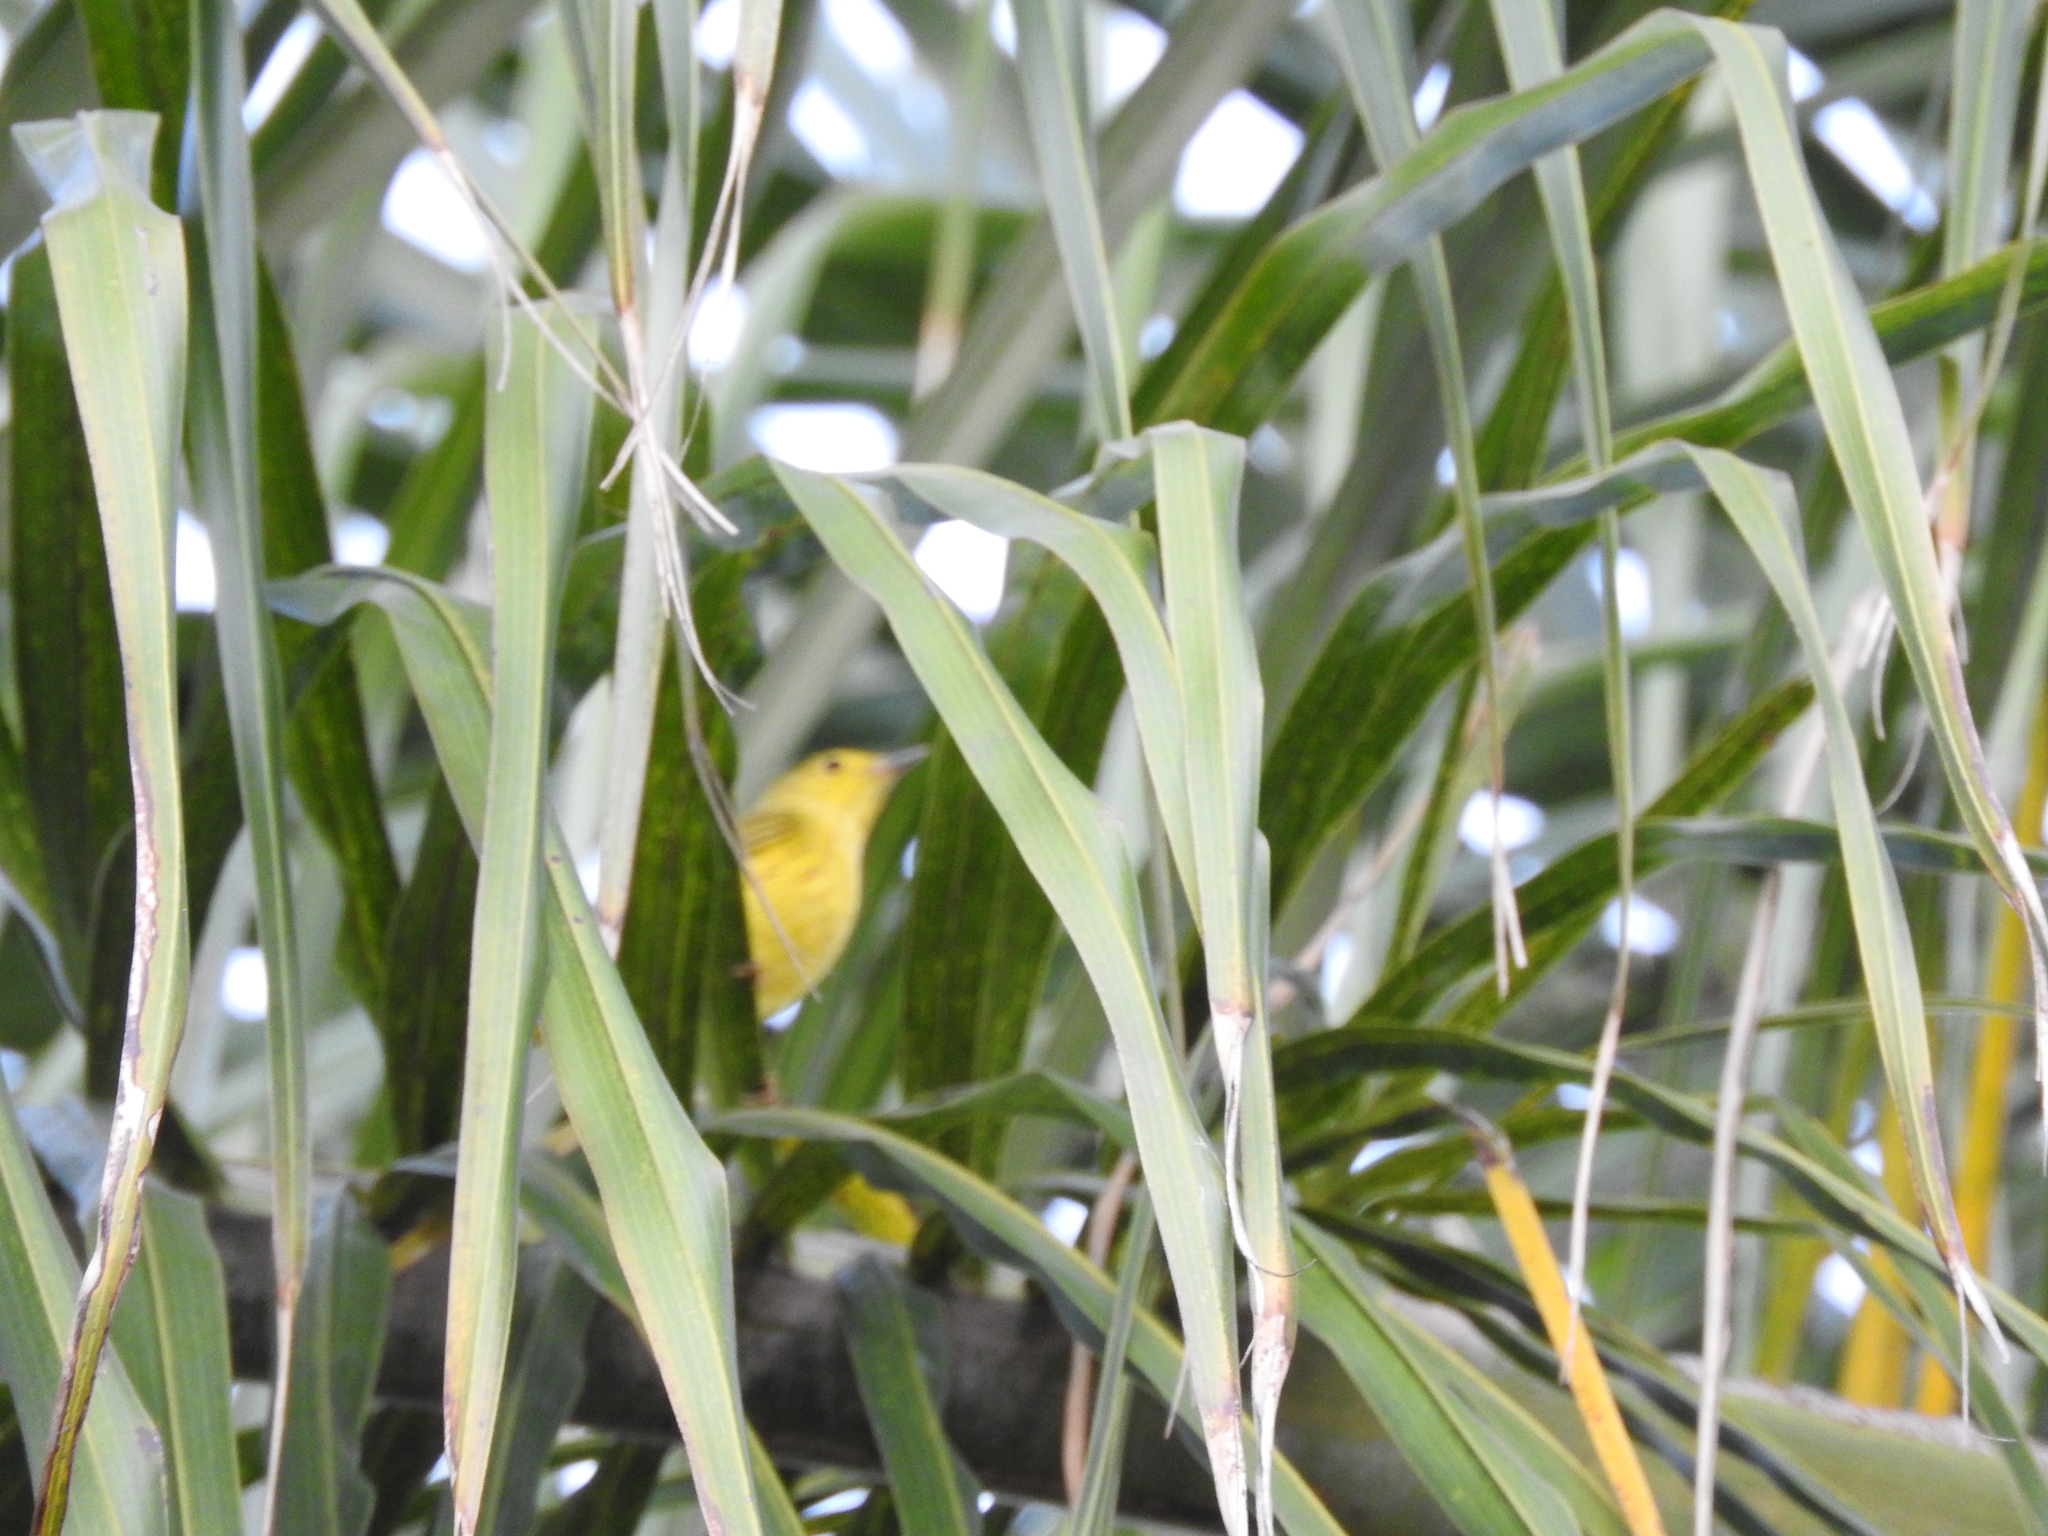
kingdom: Animalia
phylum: Chordata
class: Aves
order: Passeriformes
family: Parulidae
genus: Setophaga
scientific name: Setophaga petechia
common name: Yellow warbler
